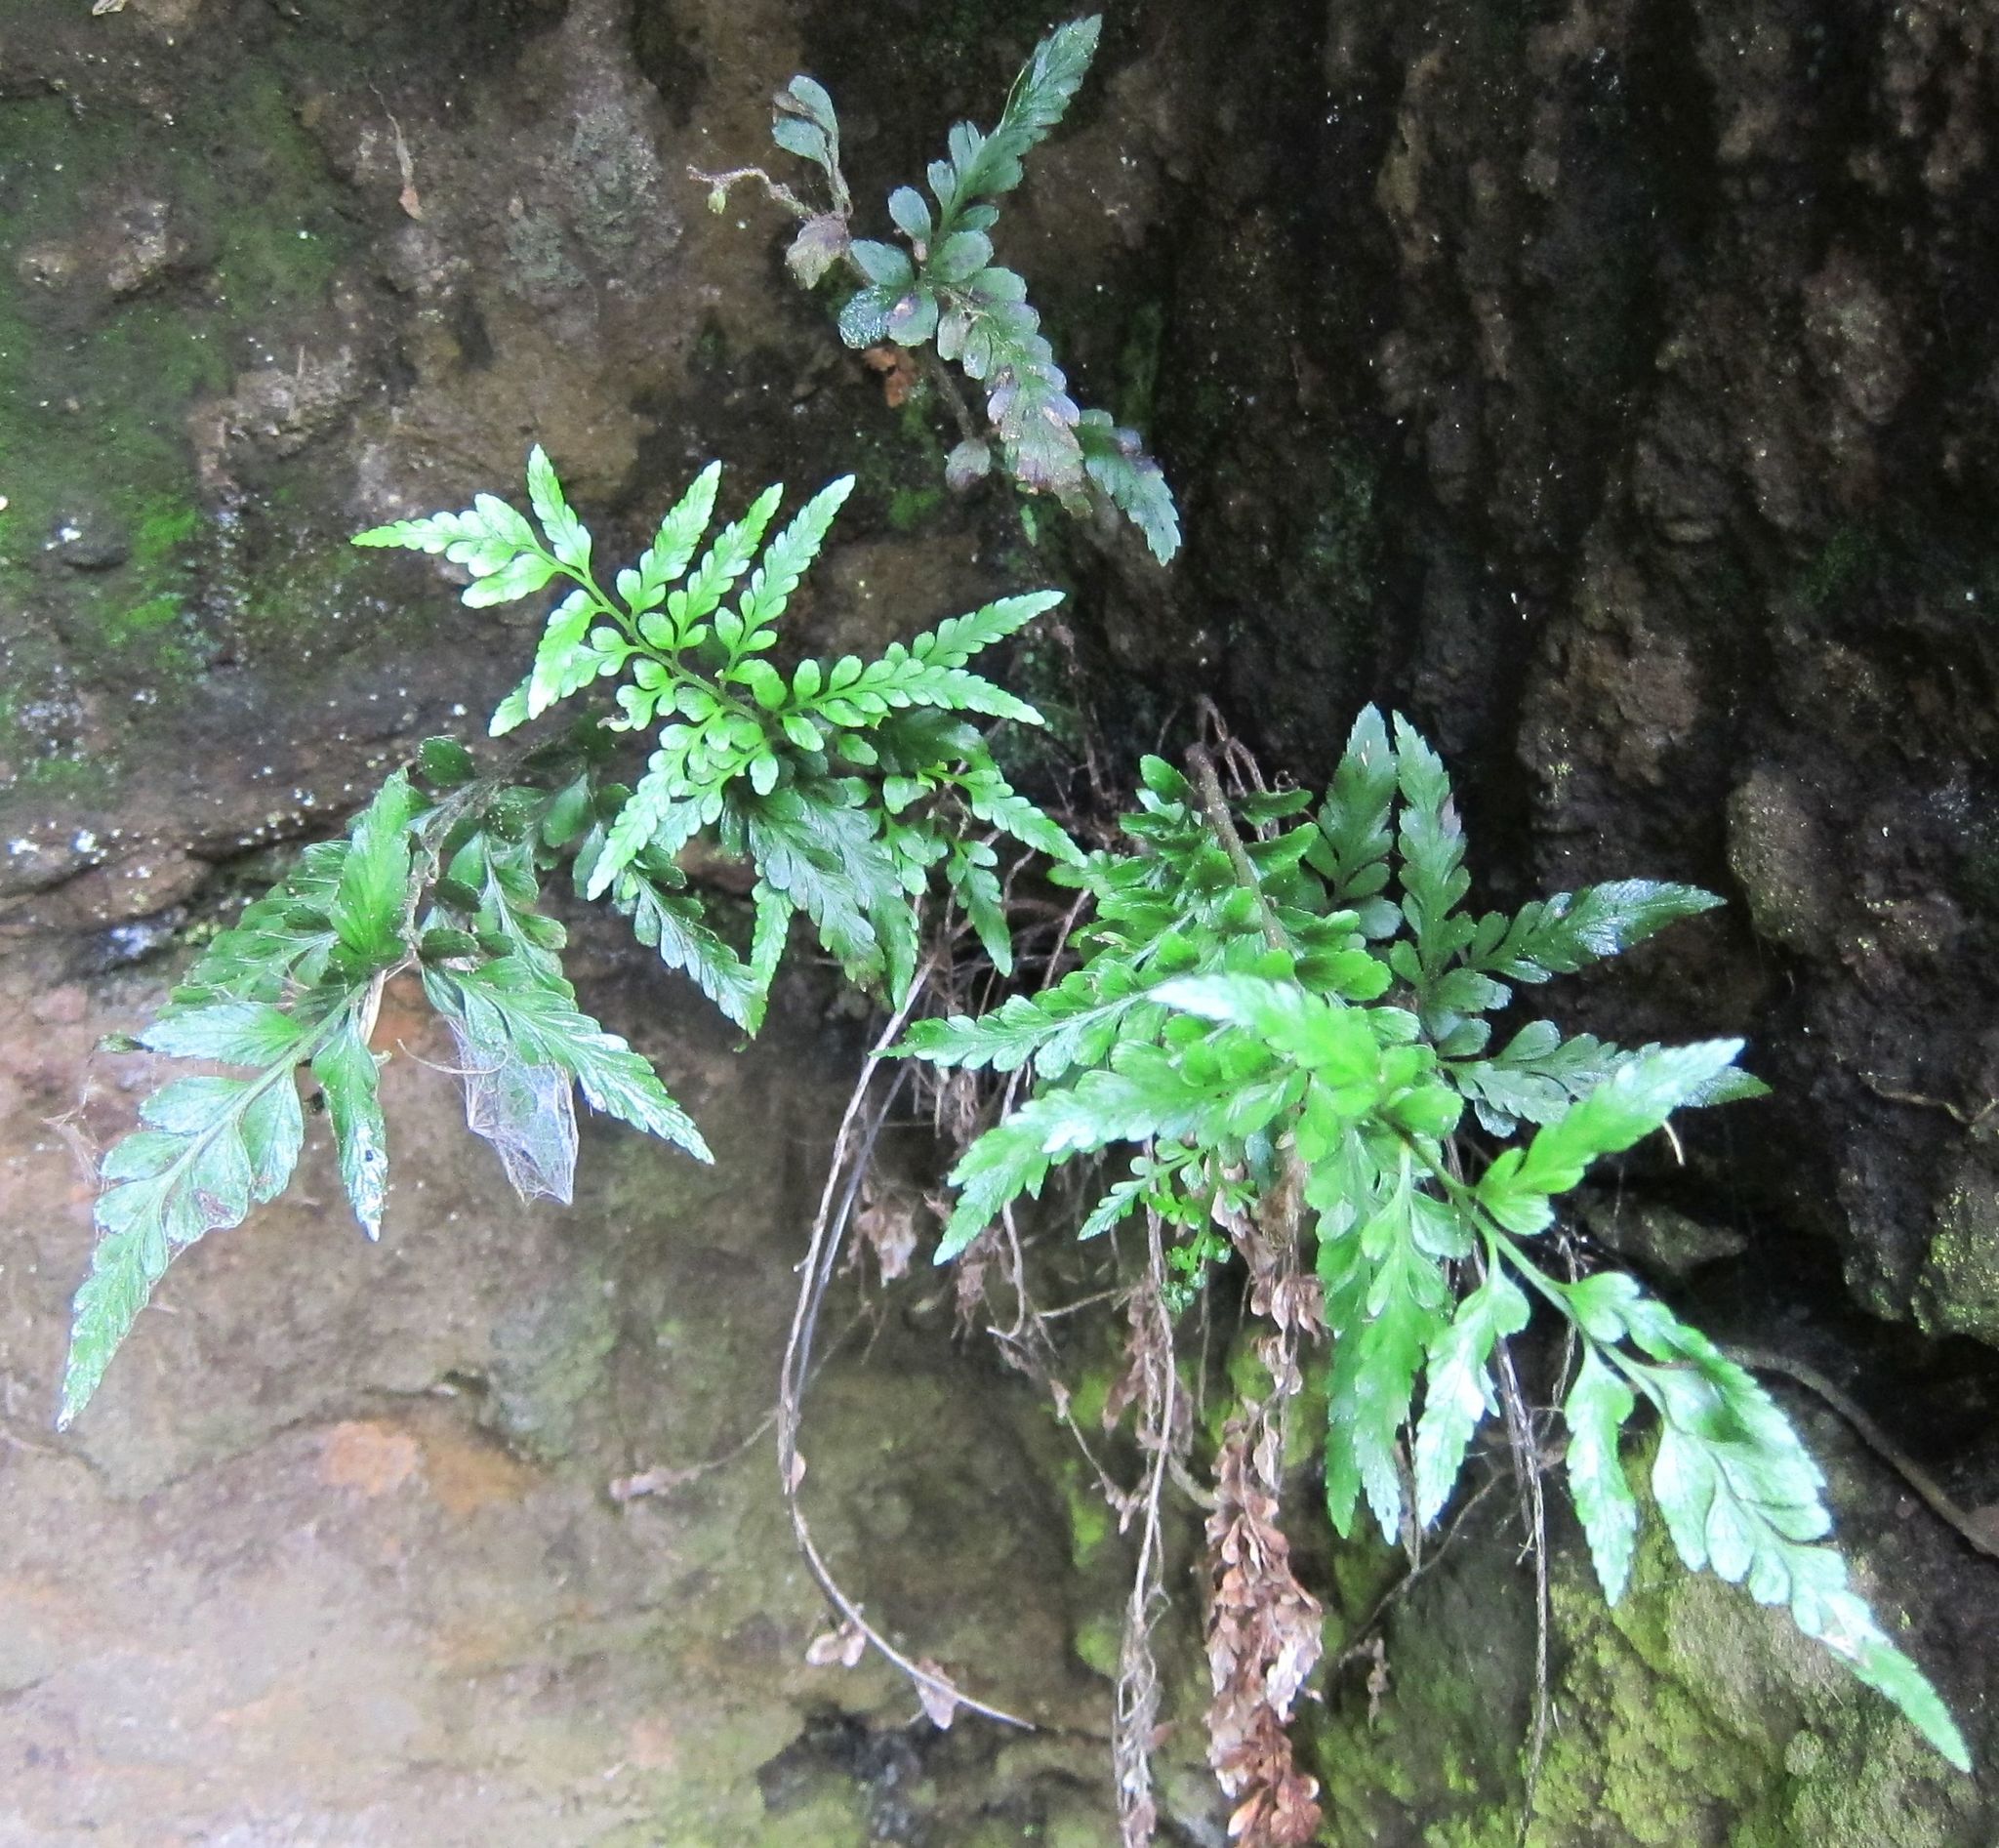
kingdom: Plantae
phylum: Tracheophyta
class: Polypodiopsida
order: Polypodiales
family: Aspleniaceae
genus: Asplenium
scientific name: Asplenium lyallii
